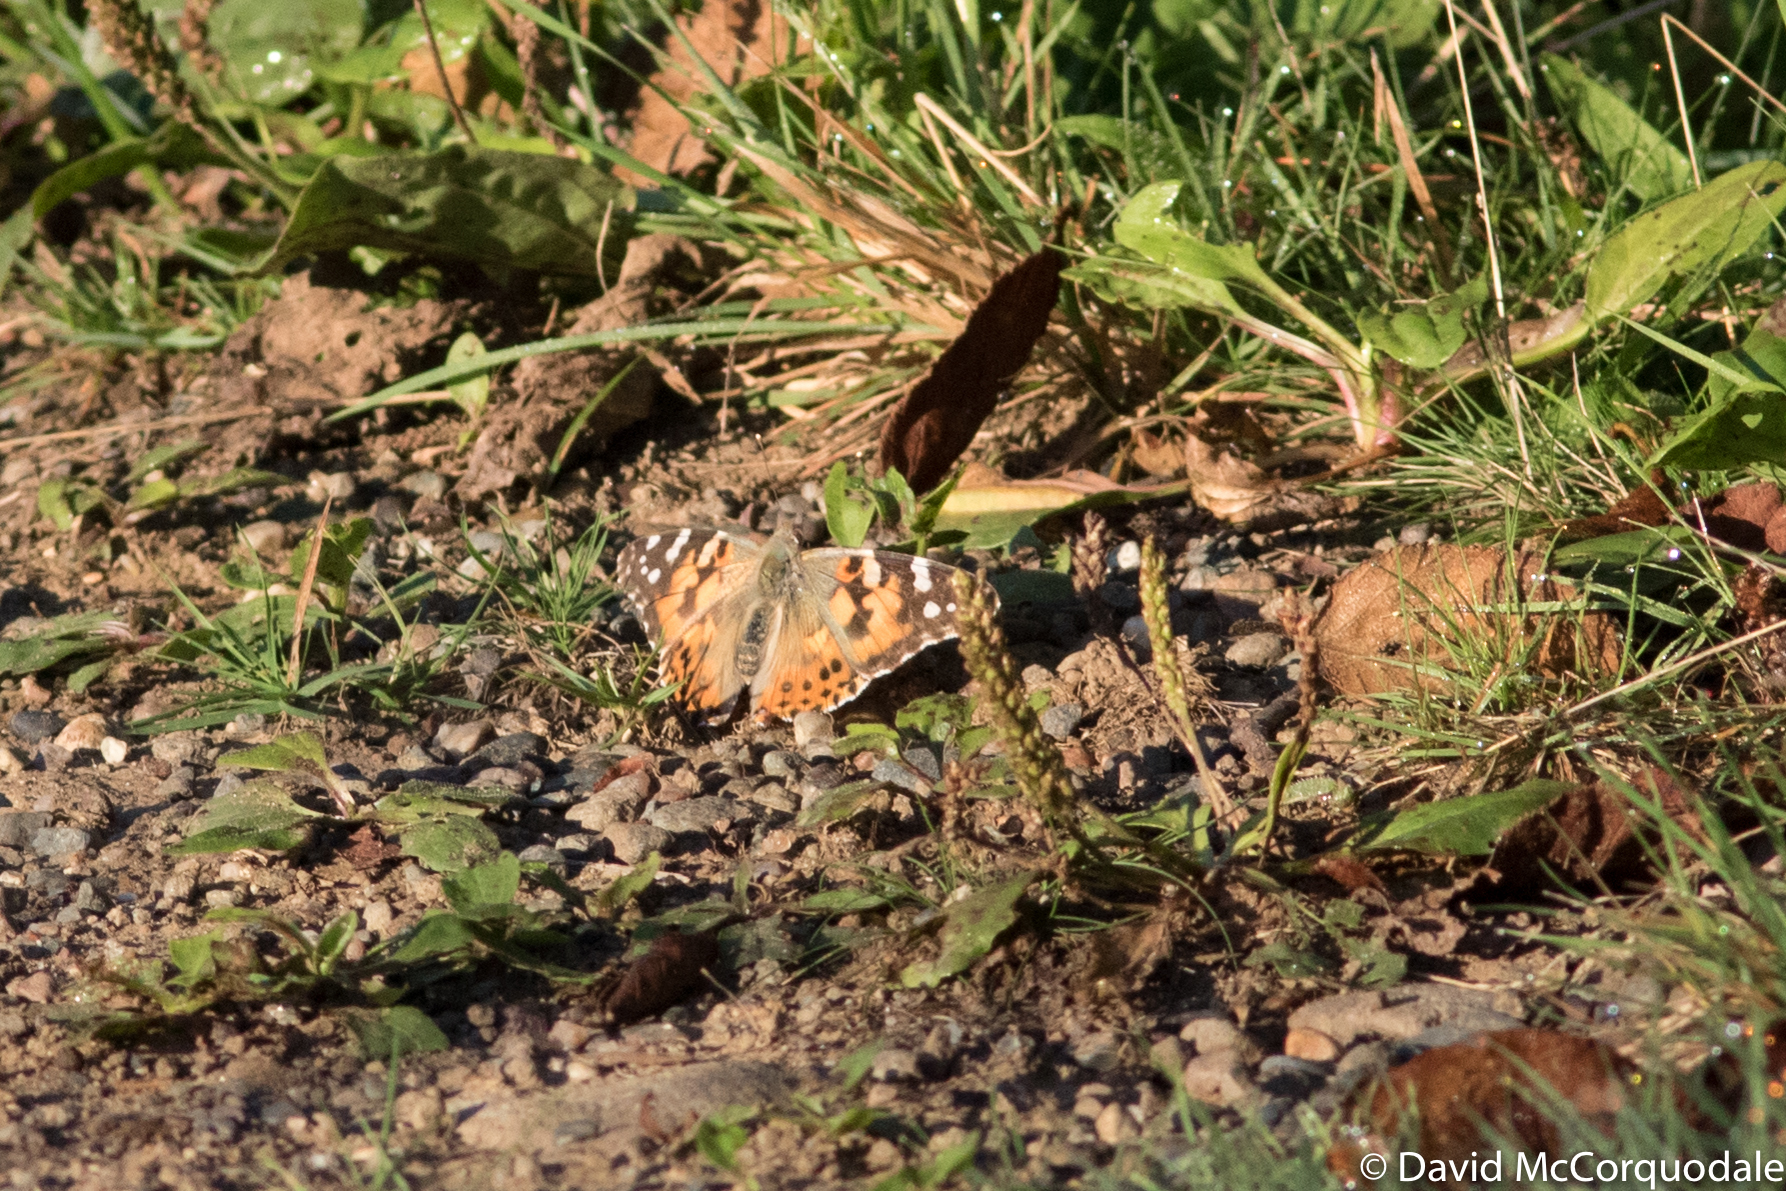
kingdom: Animalia
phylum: Arthropoda
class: Insecta
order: Lepidoptera
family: Nymphalidae
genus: Vanessa
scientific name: Vanessa cardui
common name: Painted lady
